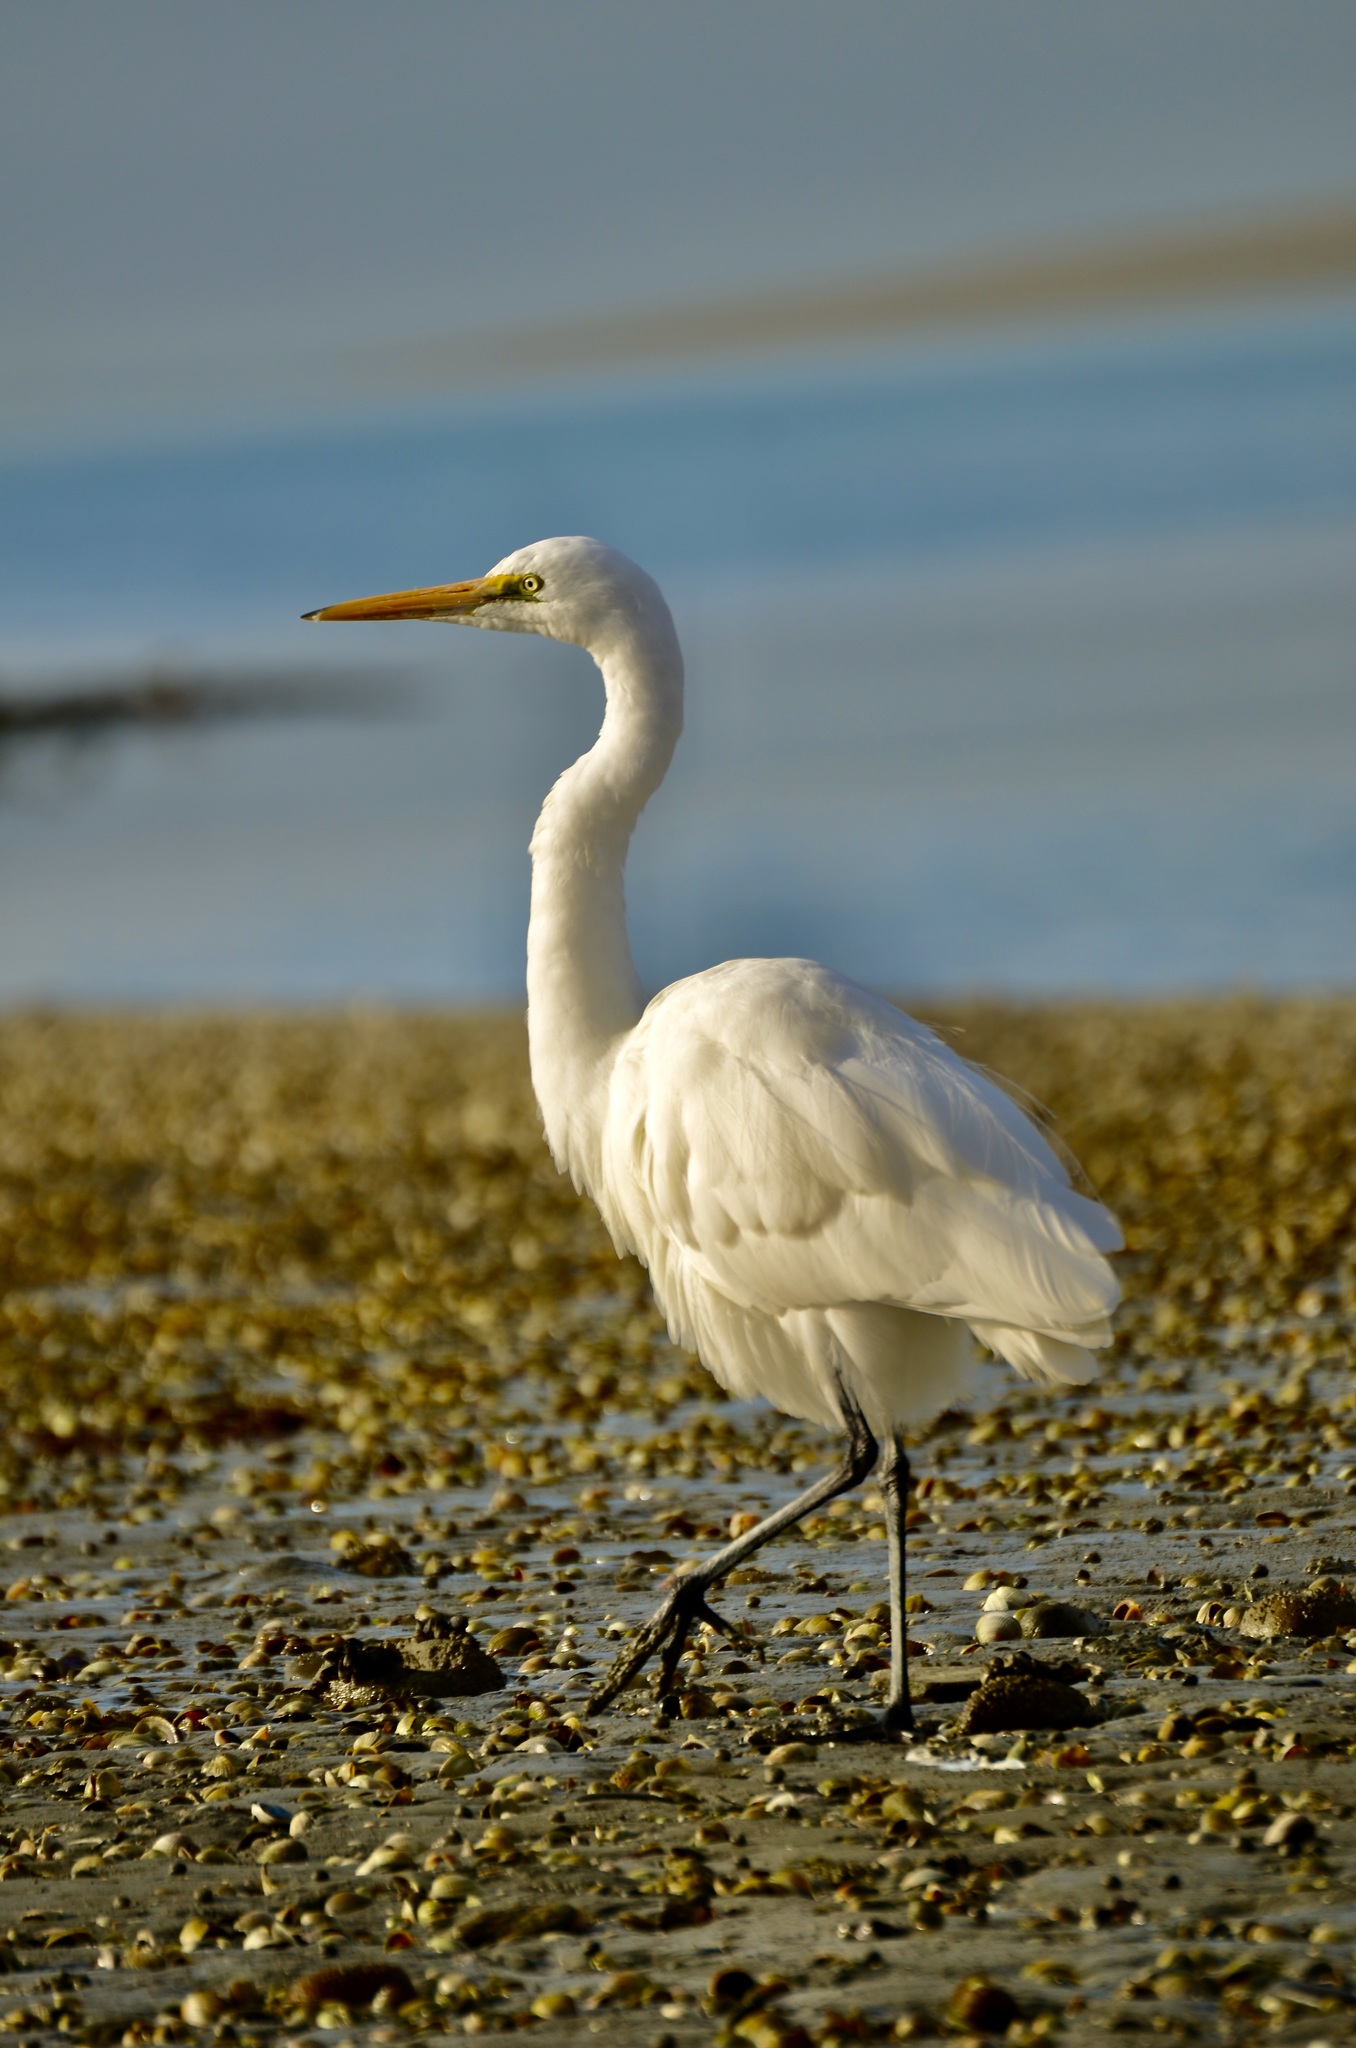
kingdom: Animalia
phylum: Chordata
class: Aves
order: Pelecaniformes
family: Ardeidae
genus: Ardea
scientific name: Ardea modesta
